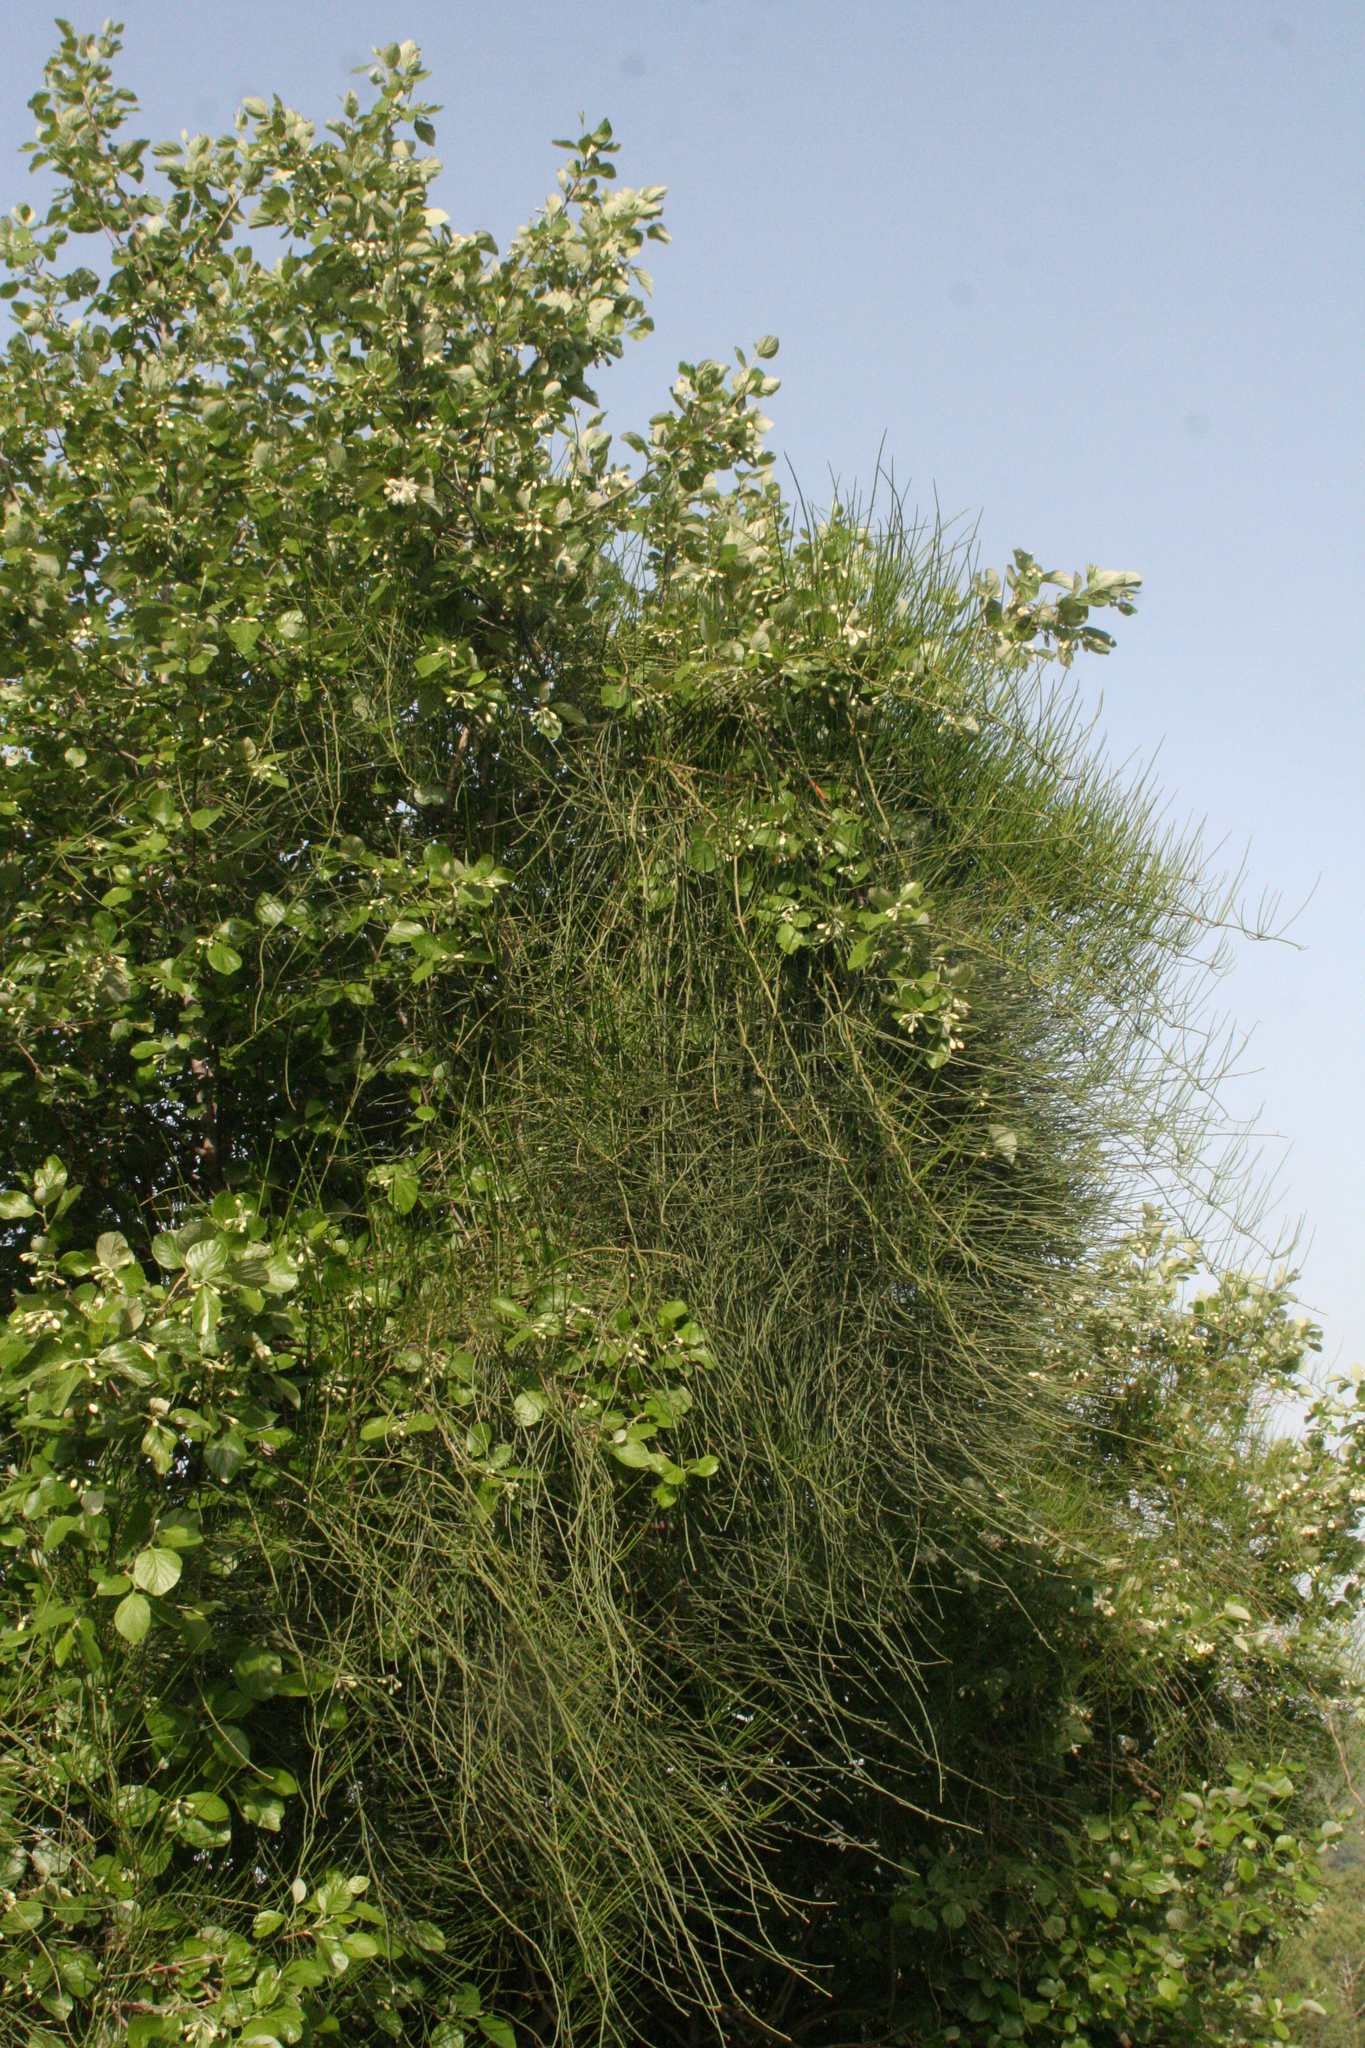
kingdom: Plantae
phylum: Tracheophyta
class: Gnetopsida
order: Ephedrales
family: Ephedraceae
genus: Ephedra
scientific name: Ephedra foeminea
